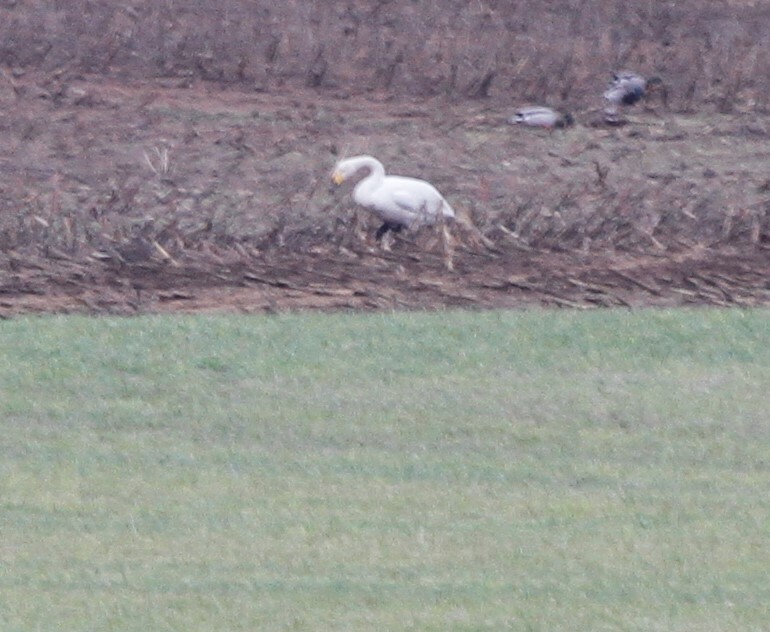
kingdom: Animalia
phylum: Chordata
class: Aves
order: Anseriformes
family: Anatidae
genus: Cygnus
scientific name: Cygnus cygnus
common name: Whooper swan
